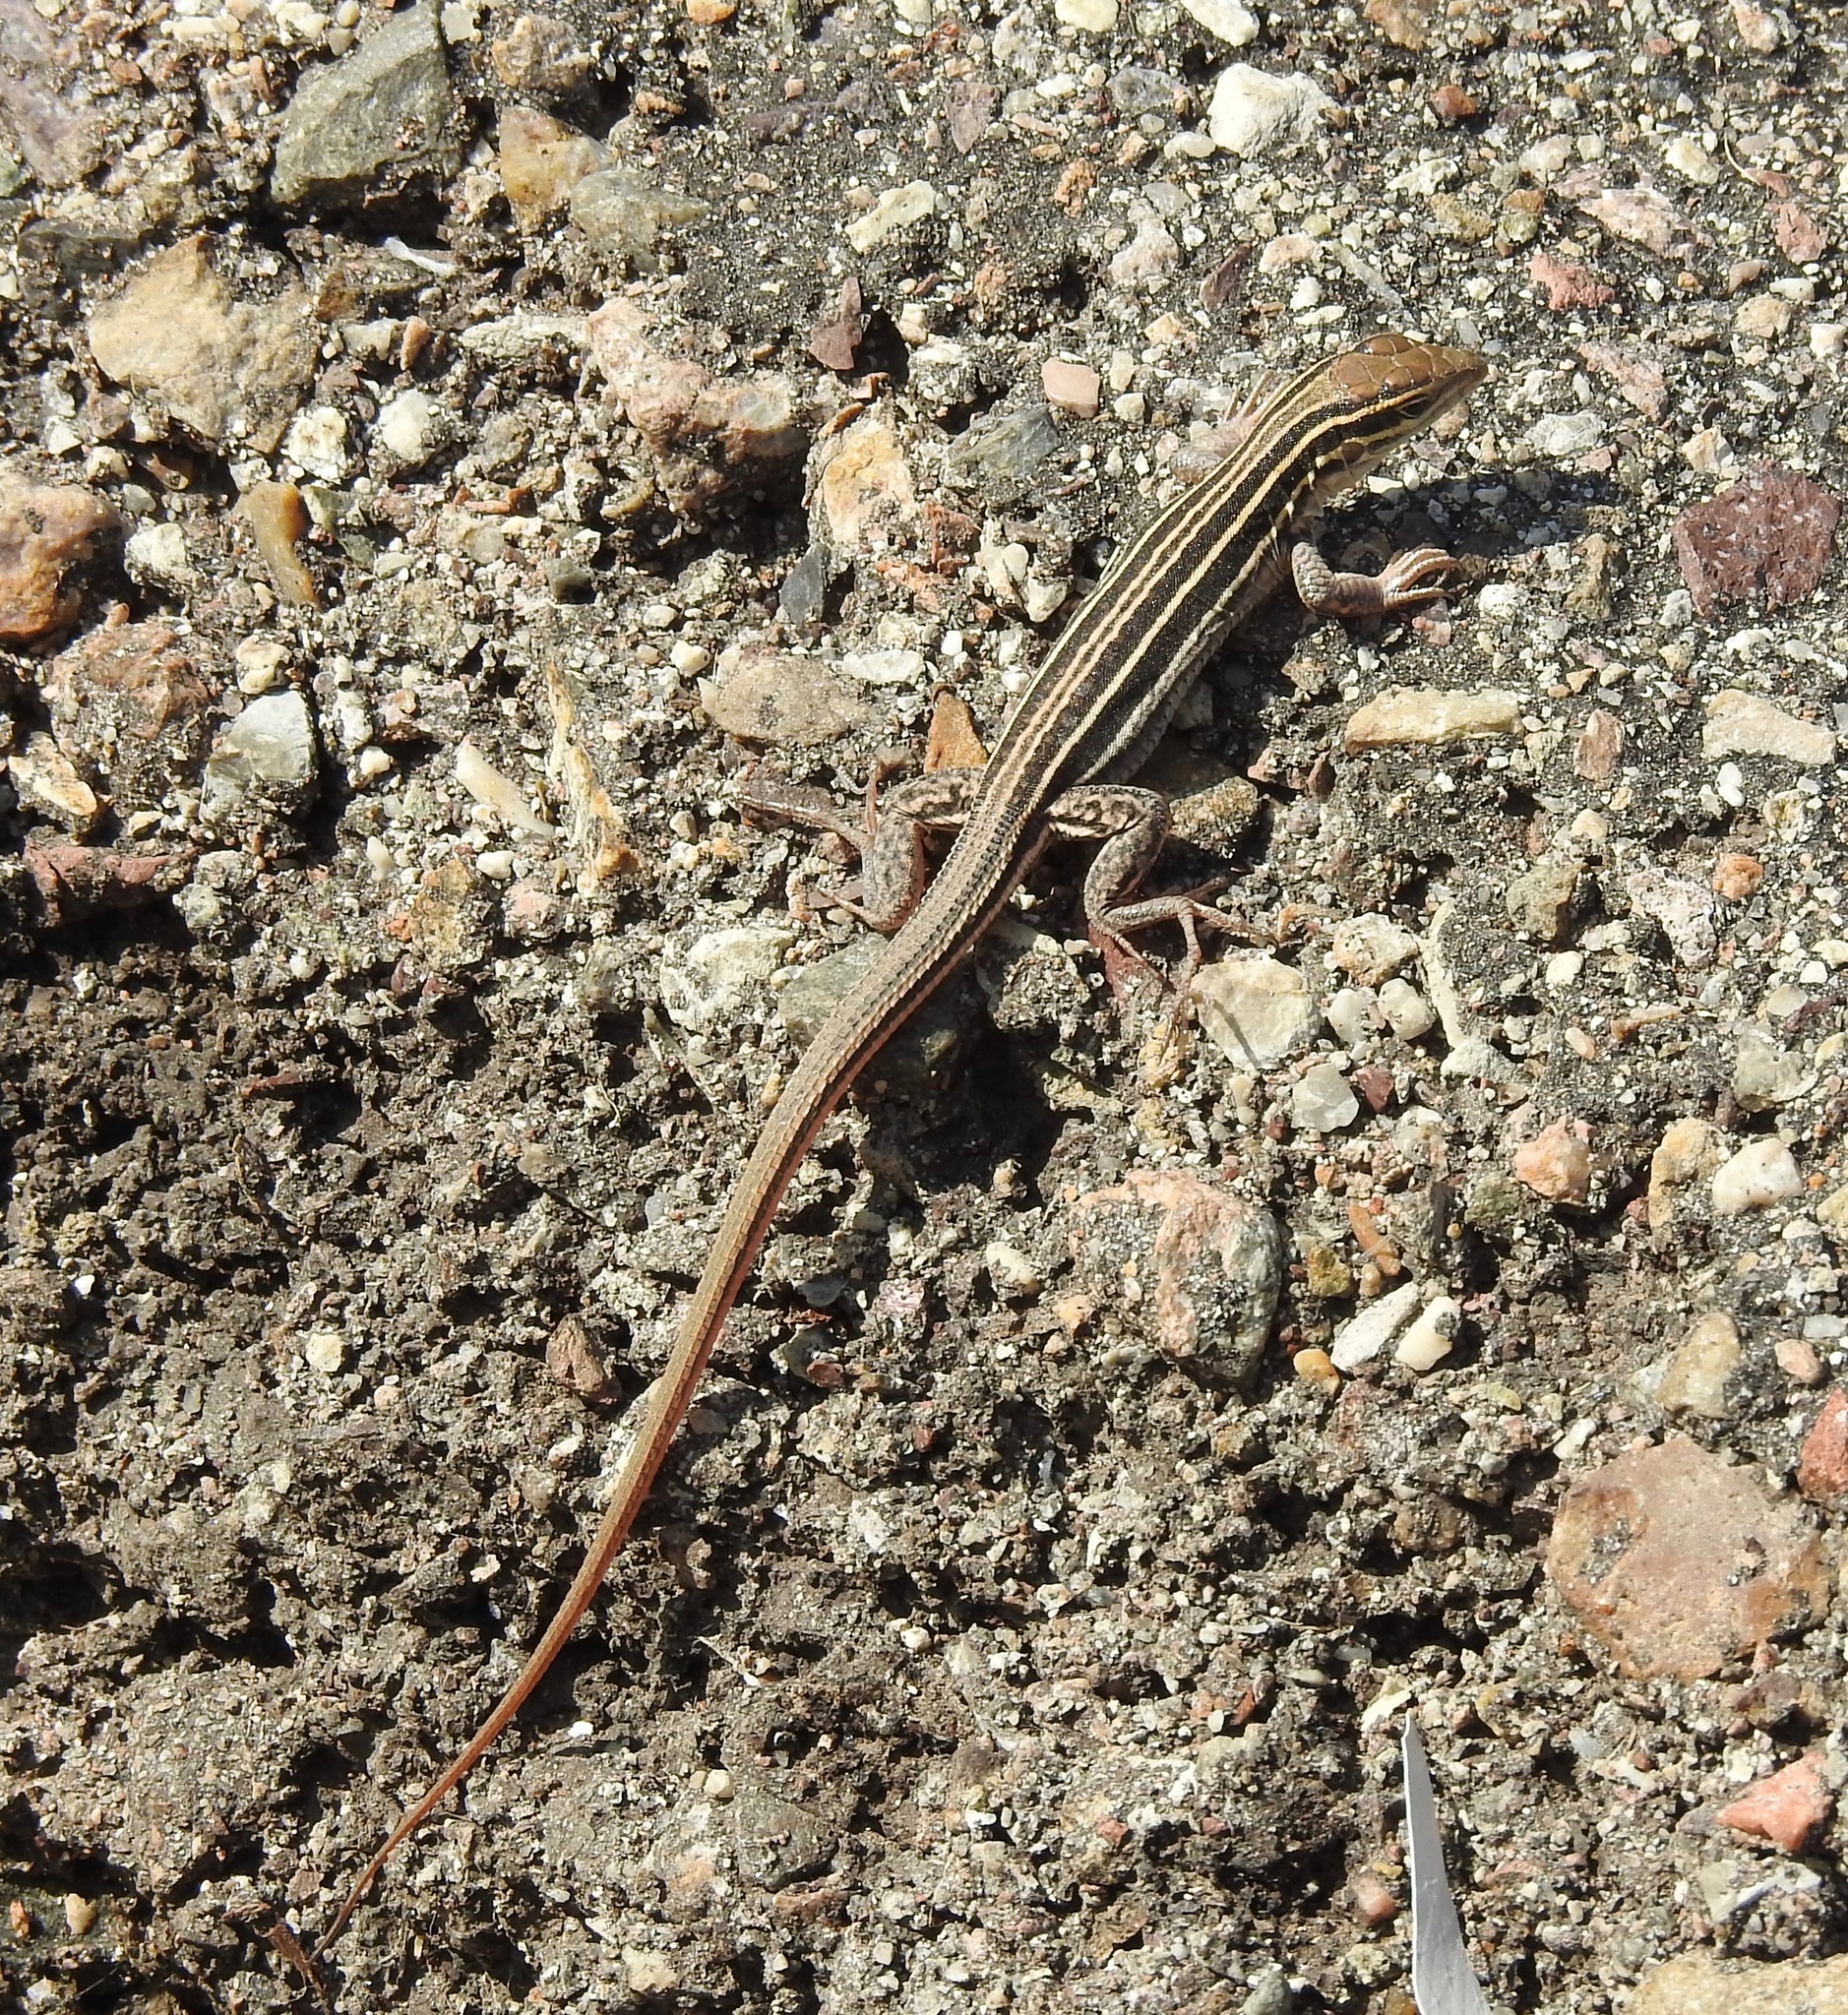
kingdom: Animalia
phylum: Chordata
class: Squamata
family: Teiidae
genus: Aspidoscelis
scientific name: Aspidoscelis sonorae
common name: Sonoran spotted whiptail
